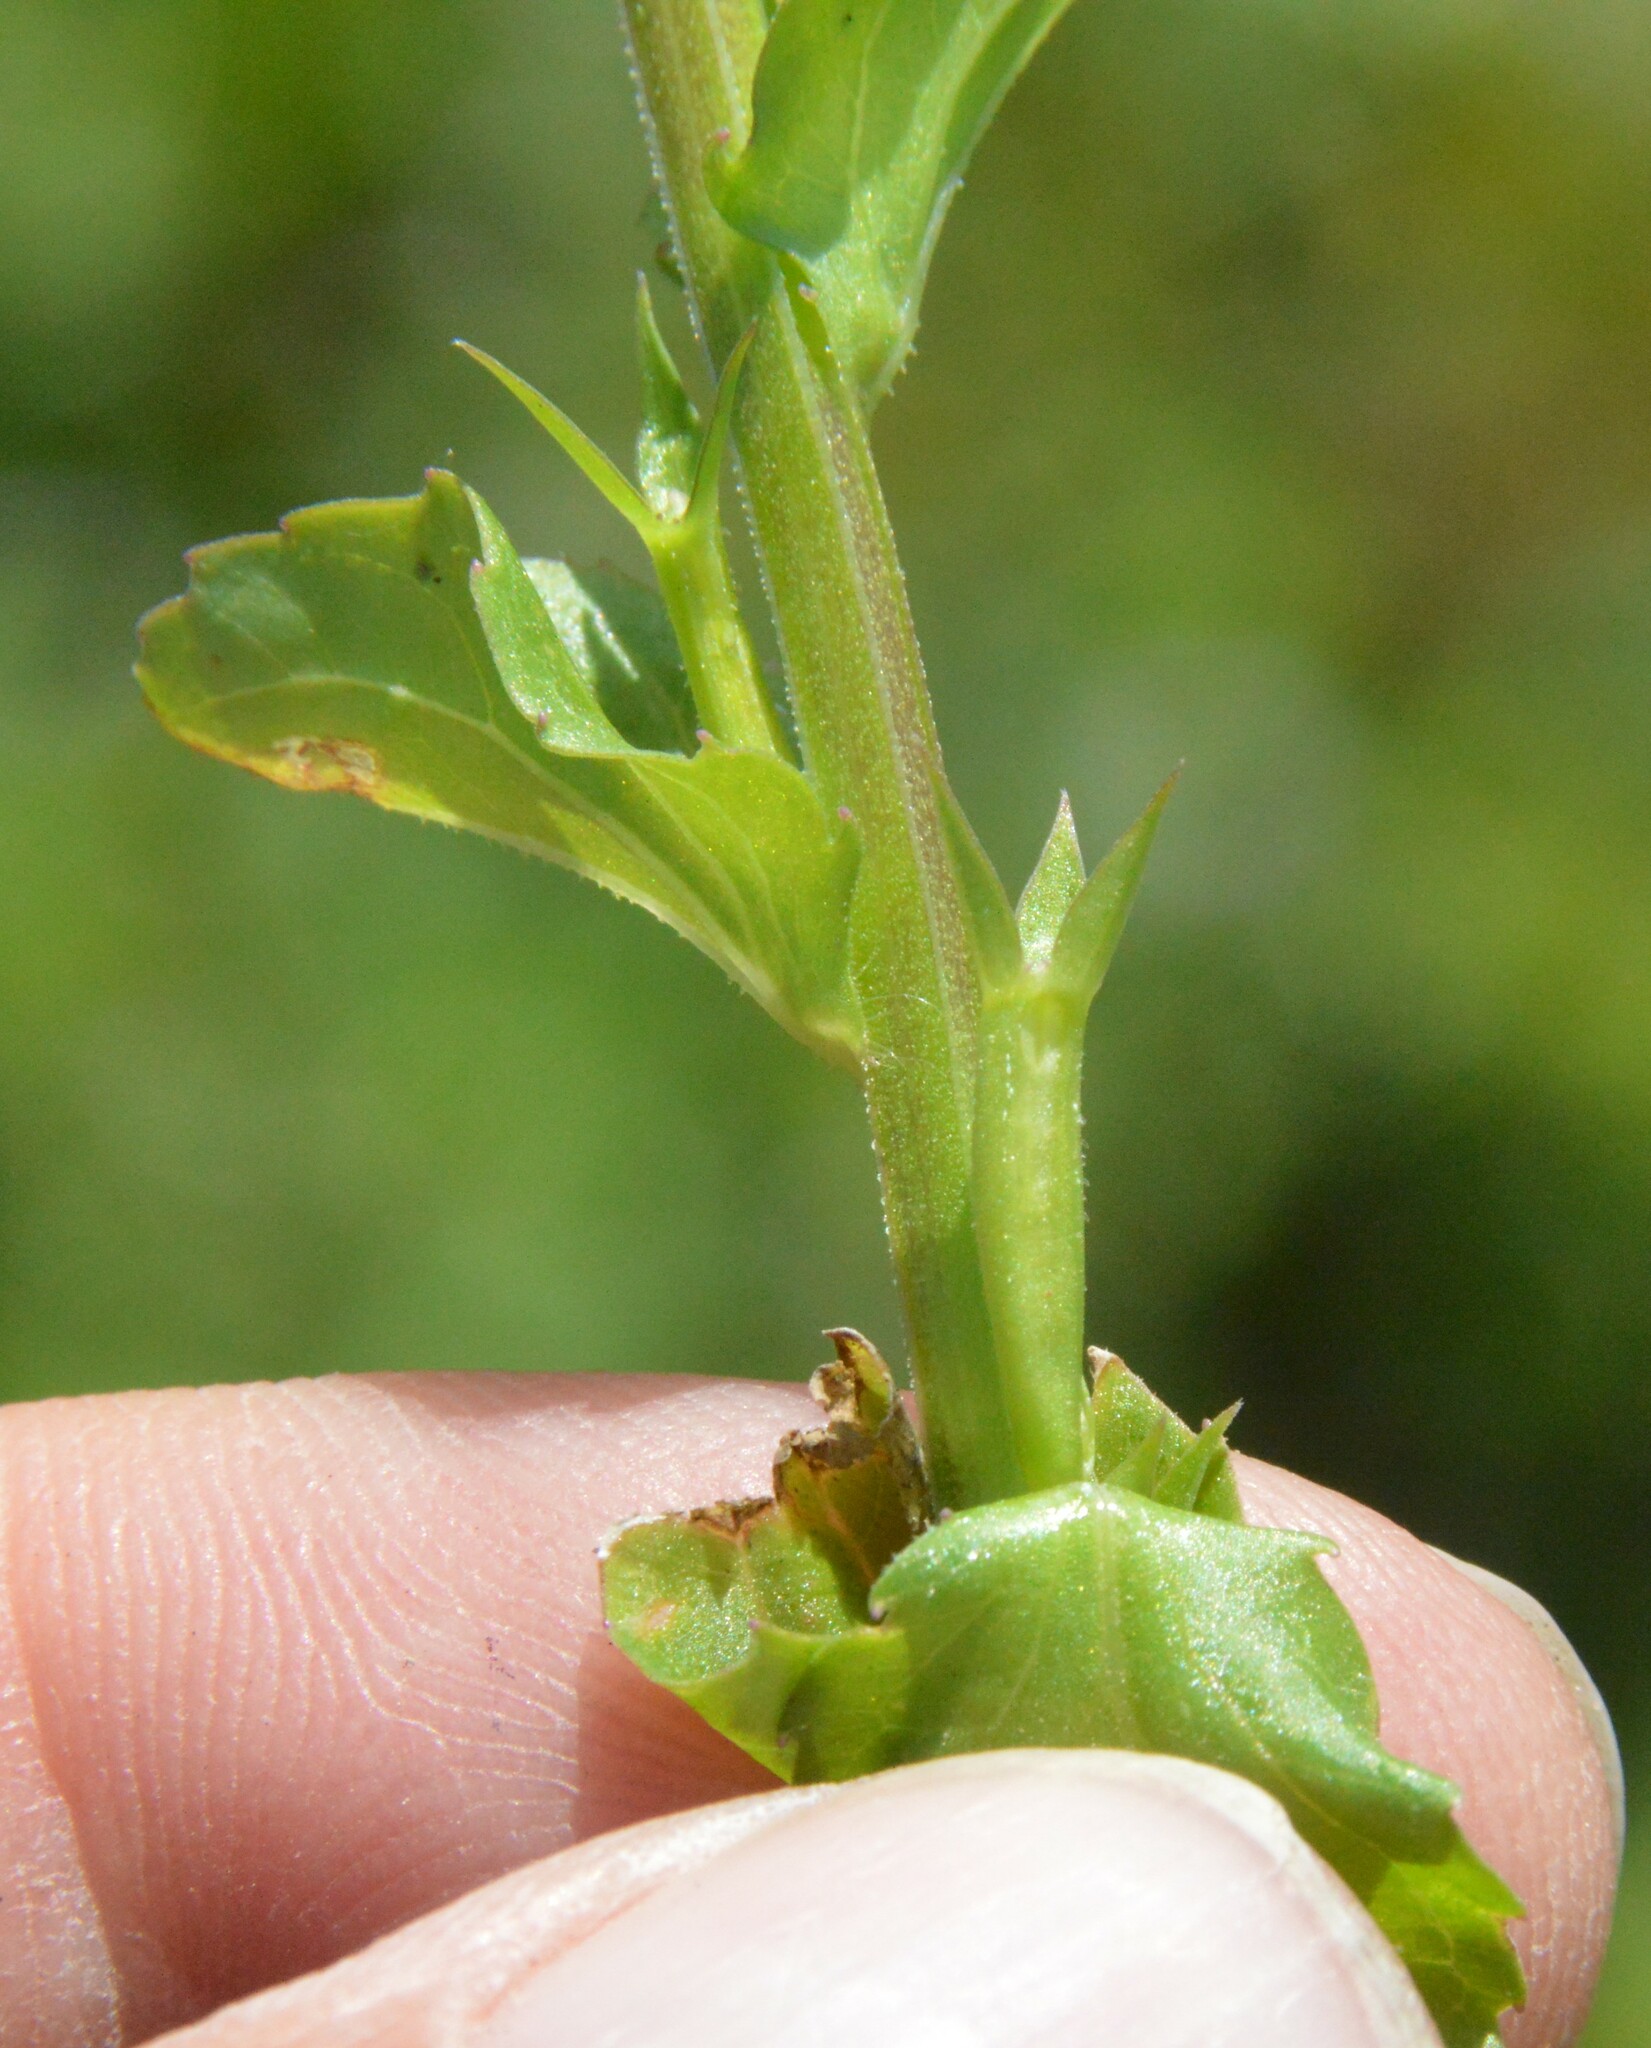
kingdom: Plantae
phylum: Tracheophyta
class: Magnoliopsida
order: Asterales
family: Campanulaceae
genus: Triodanis
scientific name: Triodanis biflora
